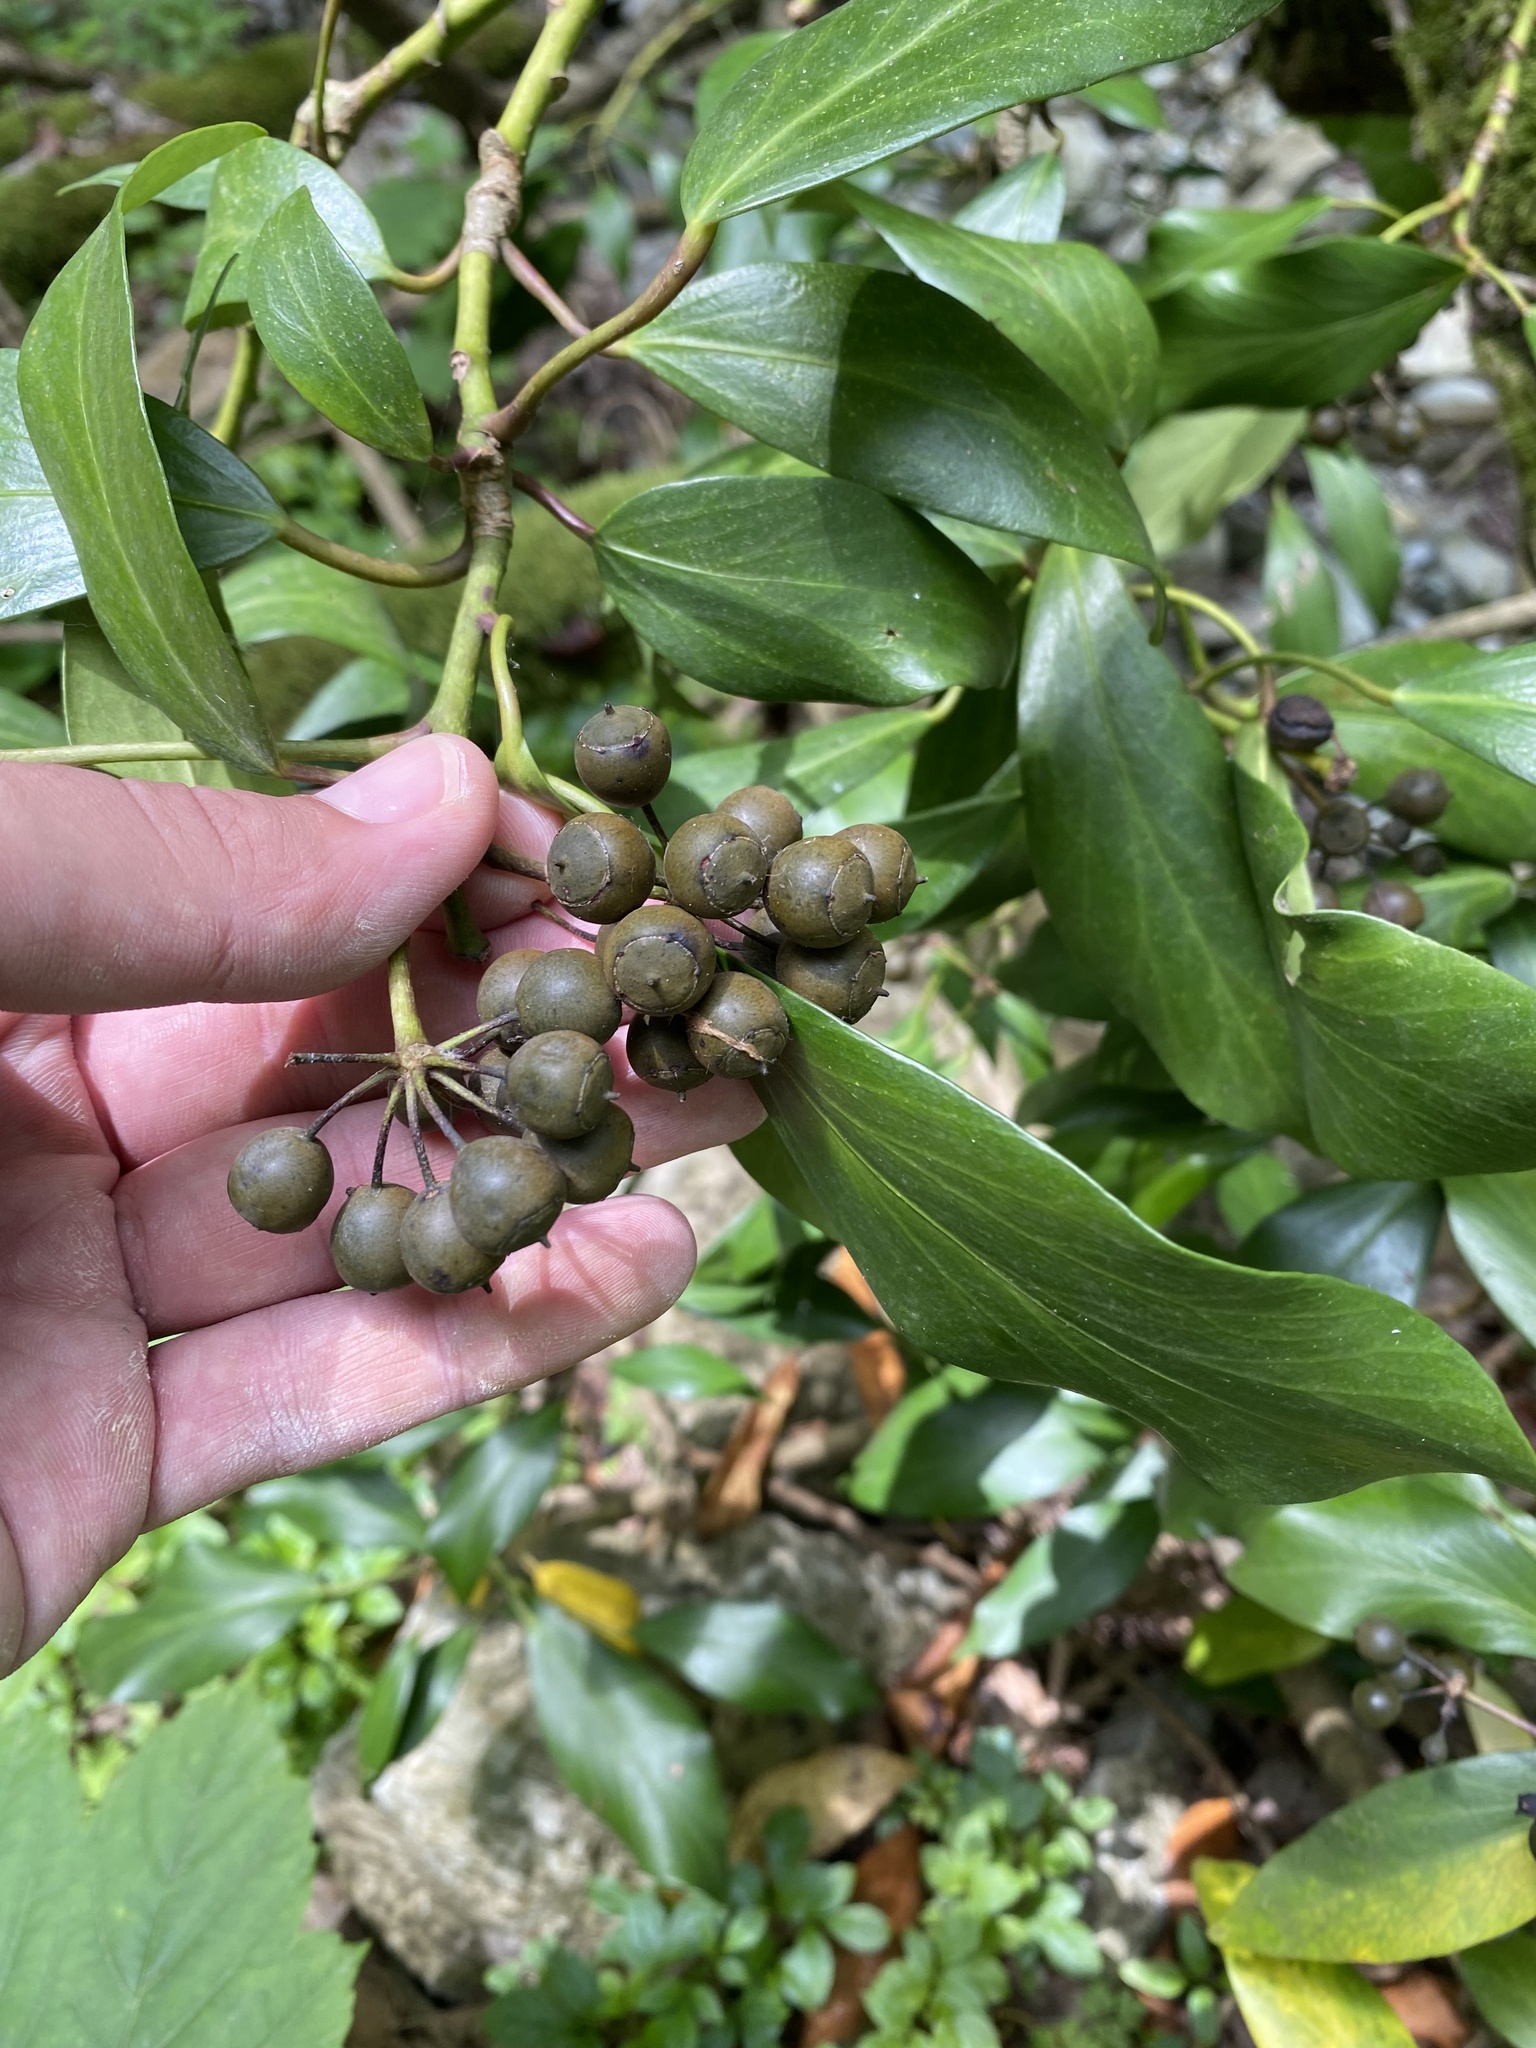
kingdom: Plantae
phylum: Tracheophyta
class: Magnoliopsida
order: Apiales
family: Araliaceae
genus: Hedera
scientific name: Hedera colchica
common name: Persian ivy
